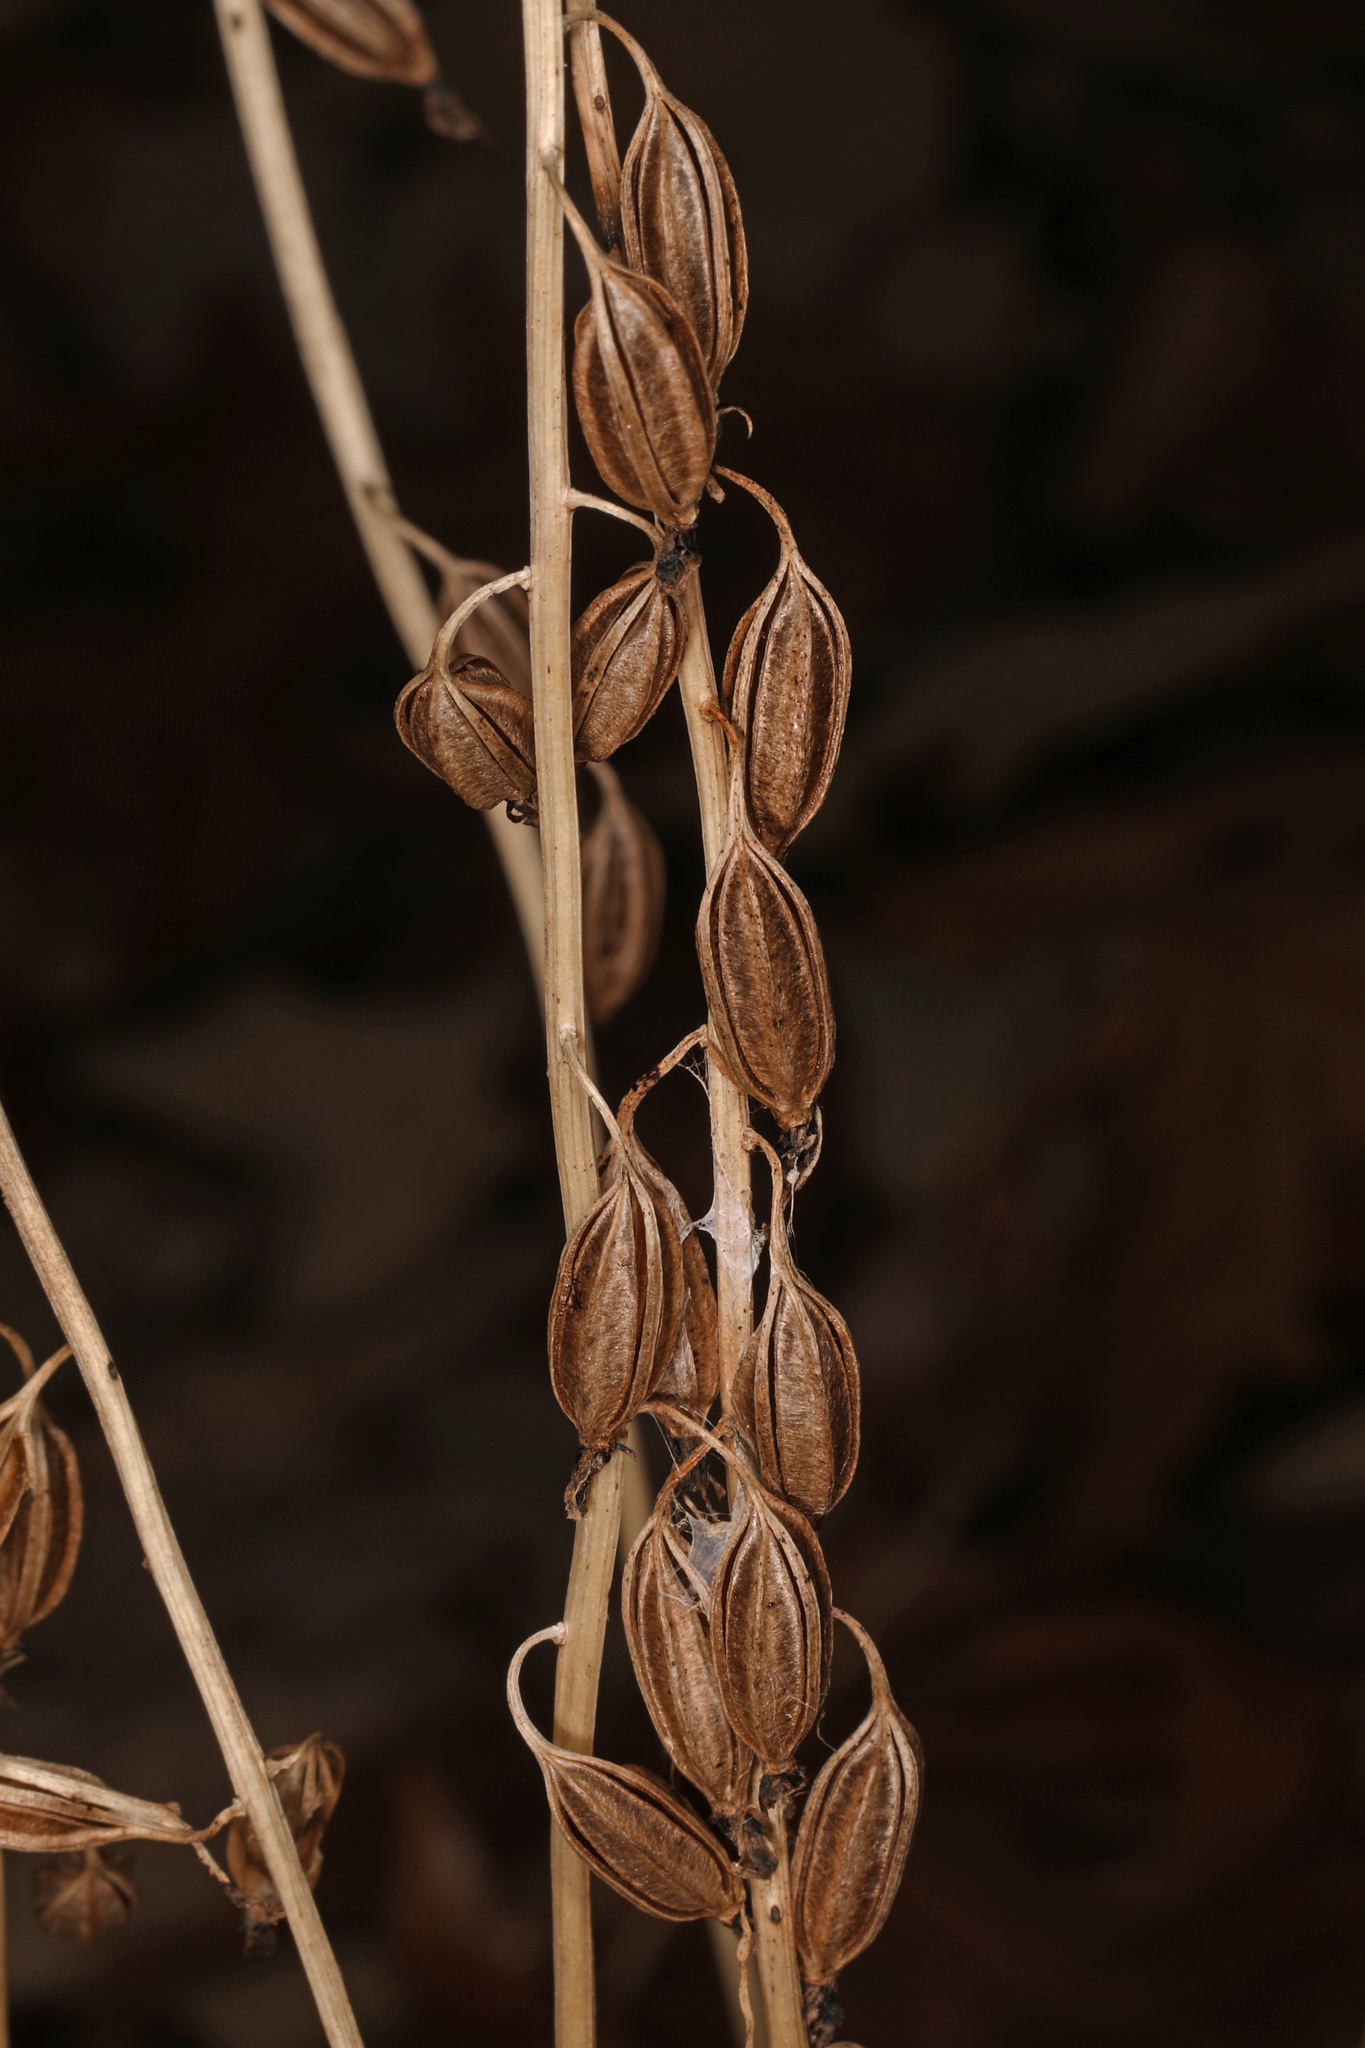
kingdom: Plantae
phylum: Tracheophyta
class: Liliopsida
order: Asparagales
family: Orchidaceae
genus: Tipularia
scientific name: Tipularia discolor
